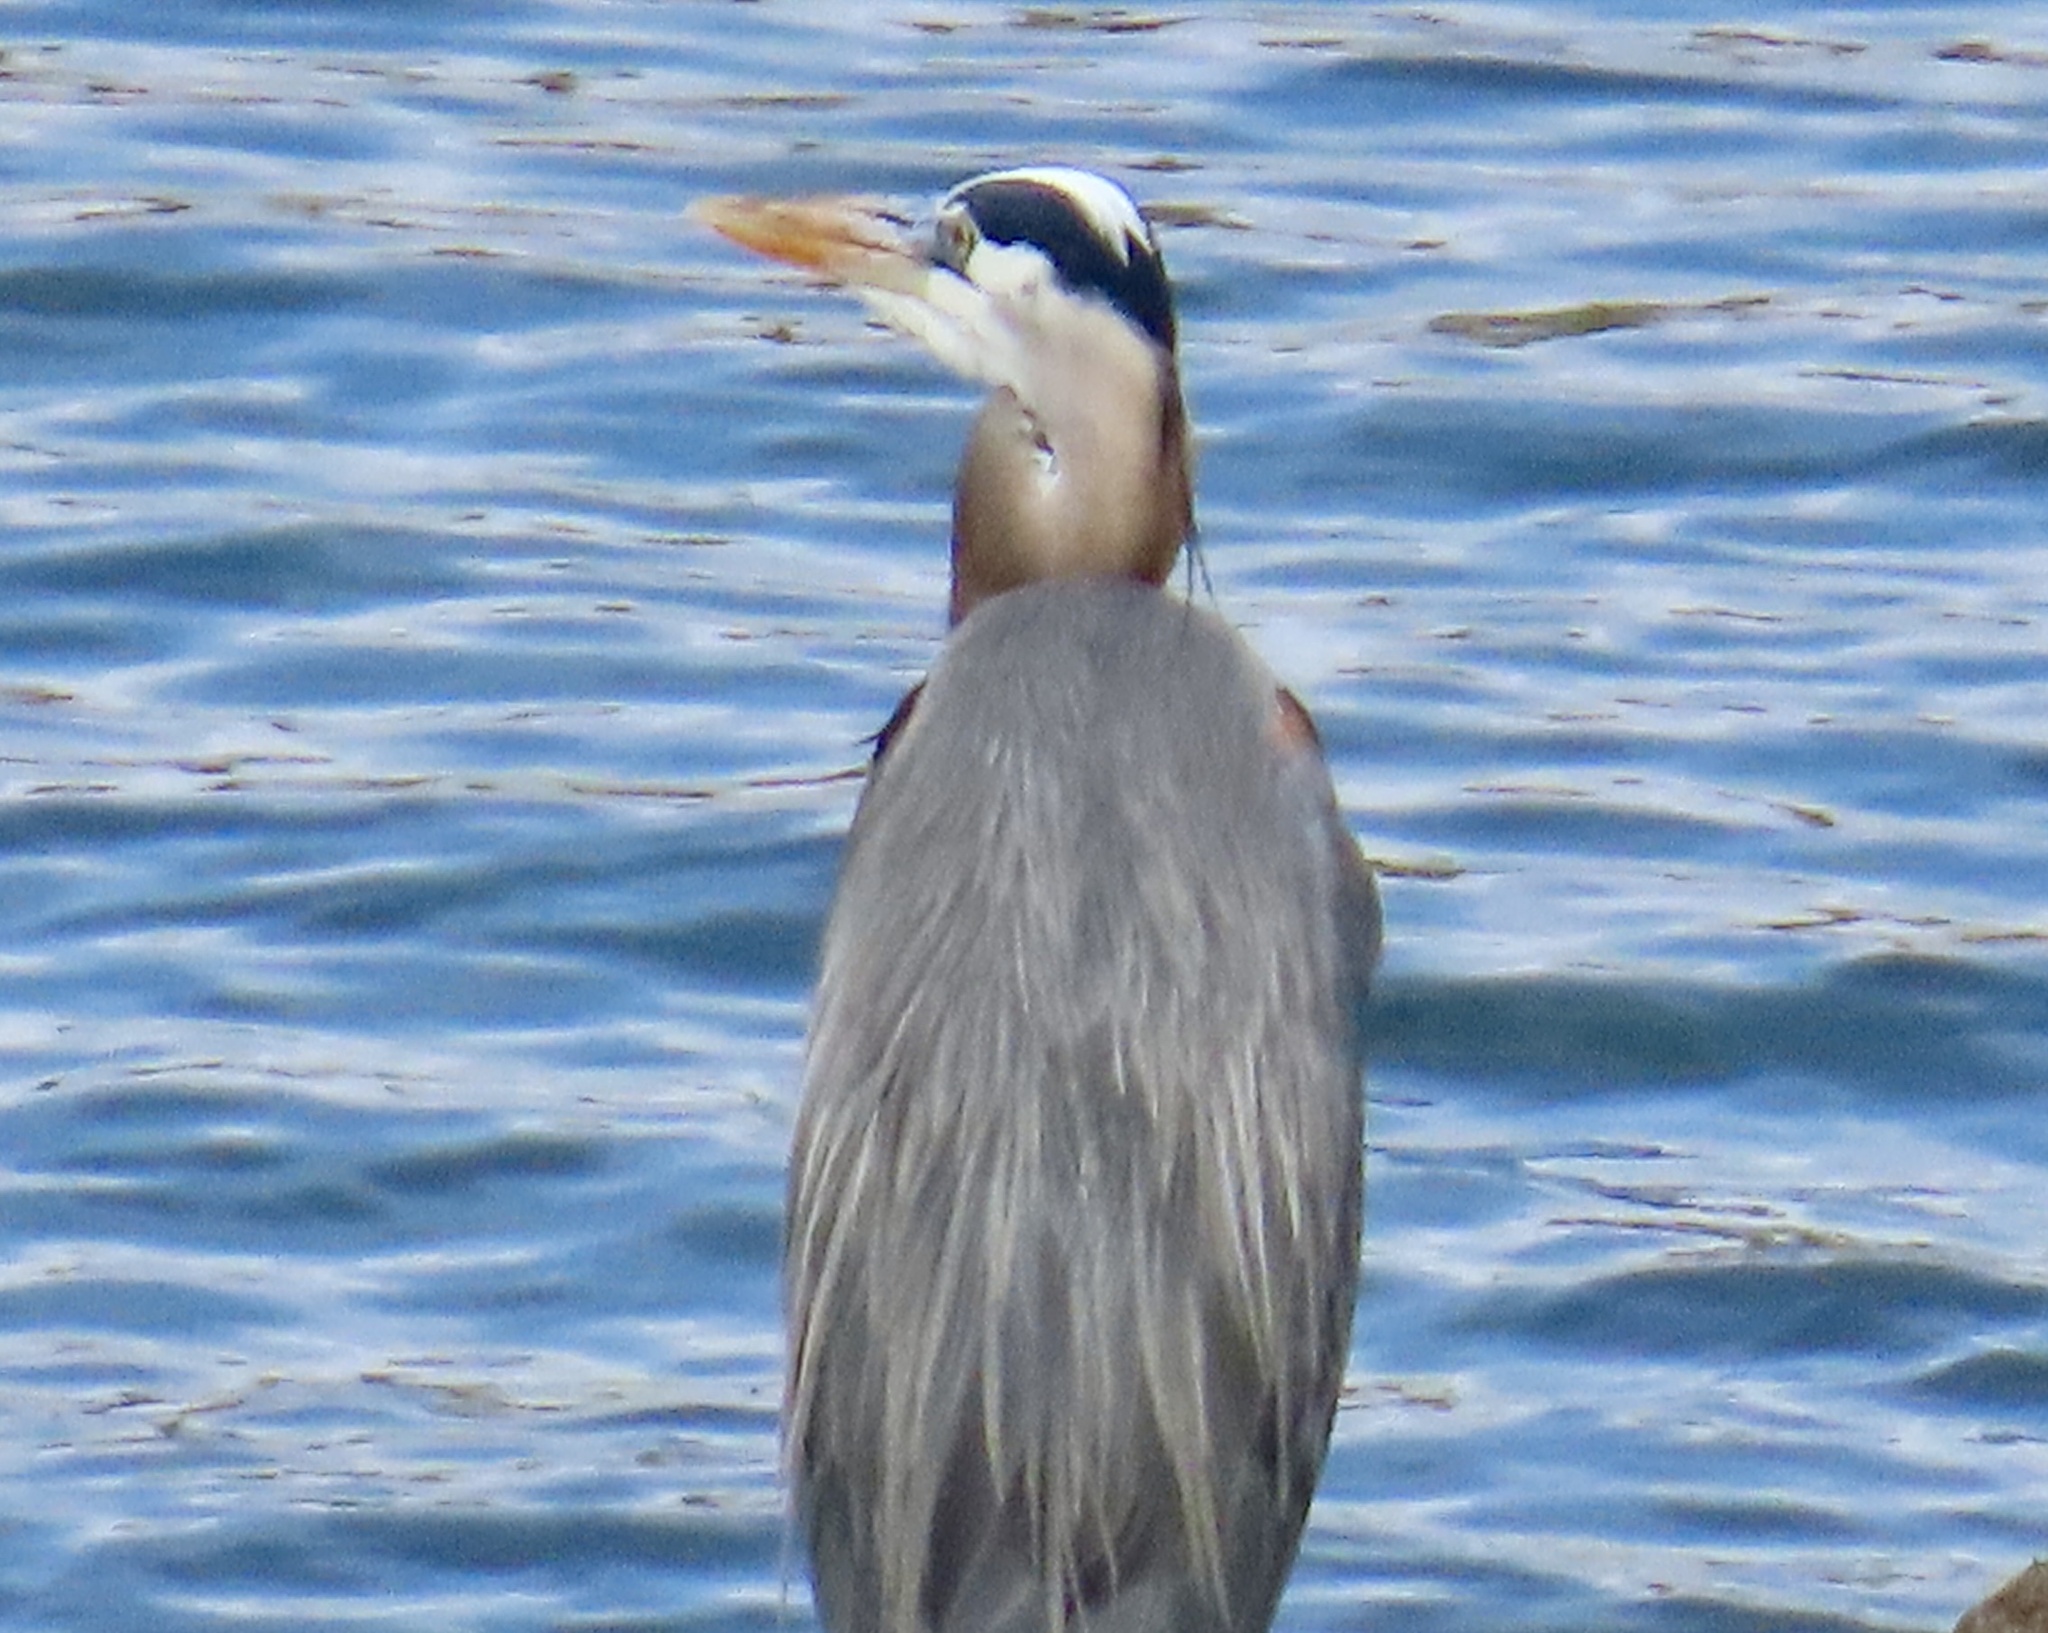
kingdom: Animalia
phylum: Chordata
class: Aves
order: Pelecaniformes
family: Ardeidae
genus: Ardea
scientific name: Ardea herodias
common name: Great blue heron
